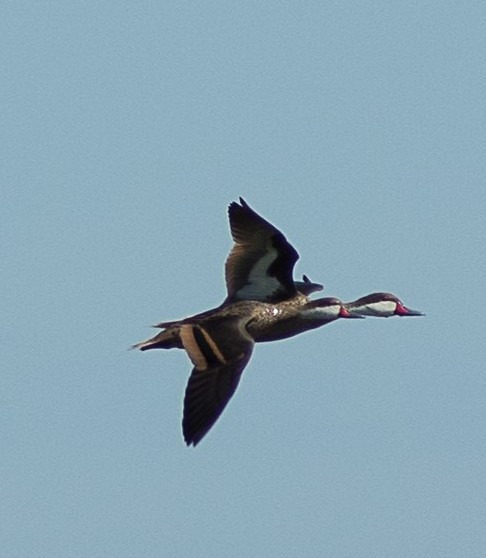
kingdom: Animalia
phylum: Chordata
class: Aves
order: Anseriformes
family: Anatidae
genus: Anas
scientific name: Anas bahamensis
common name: White-cheeked pintail
